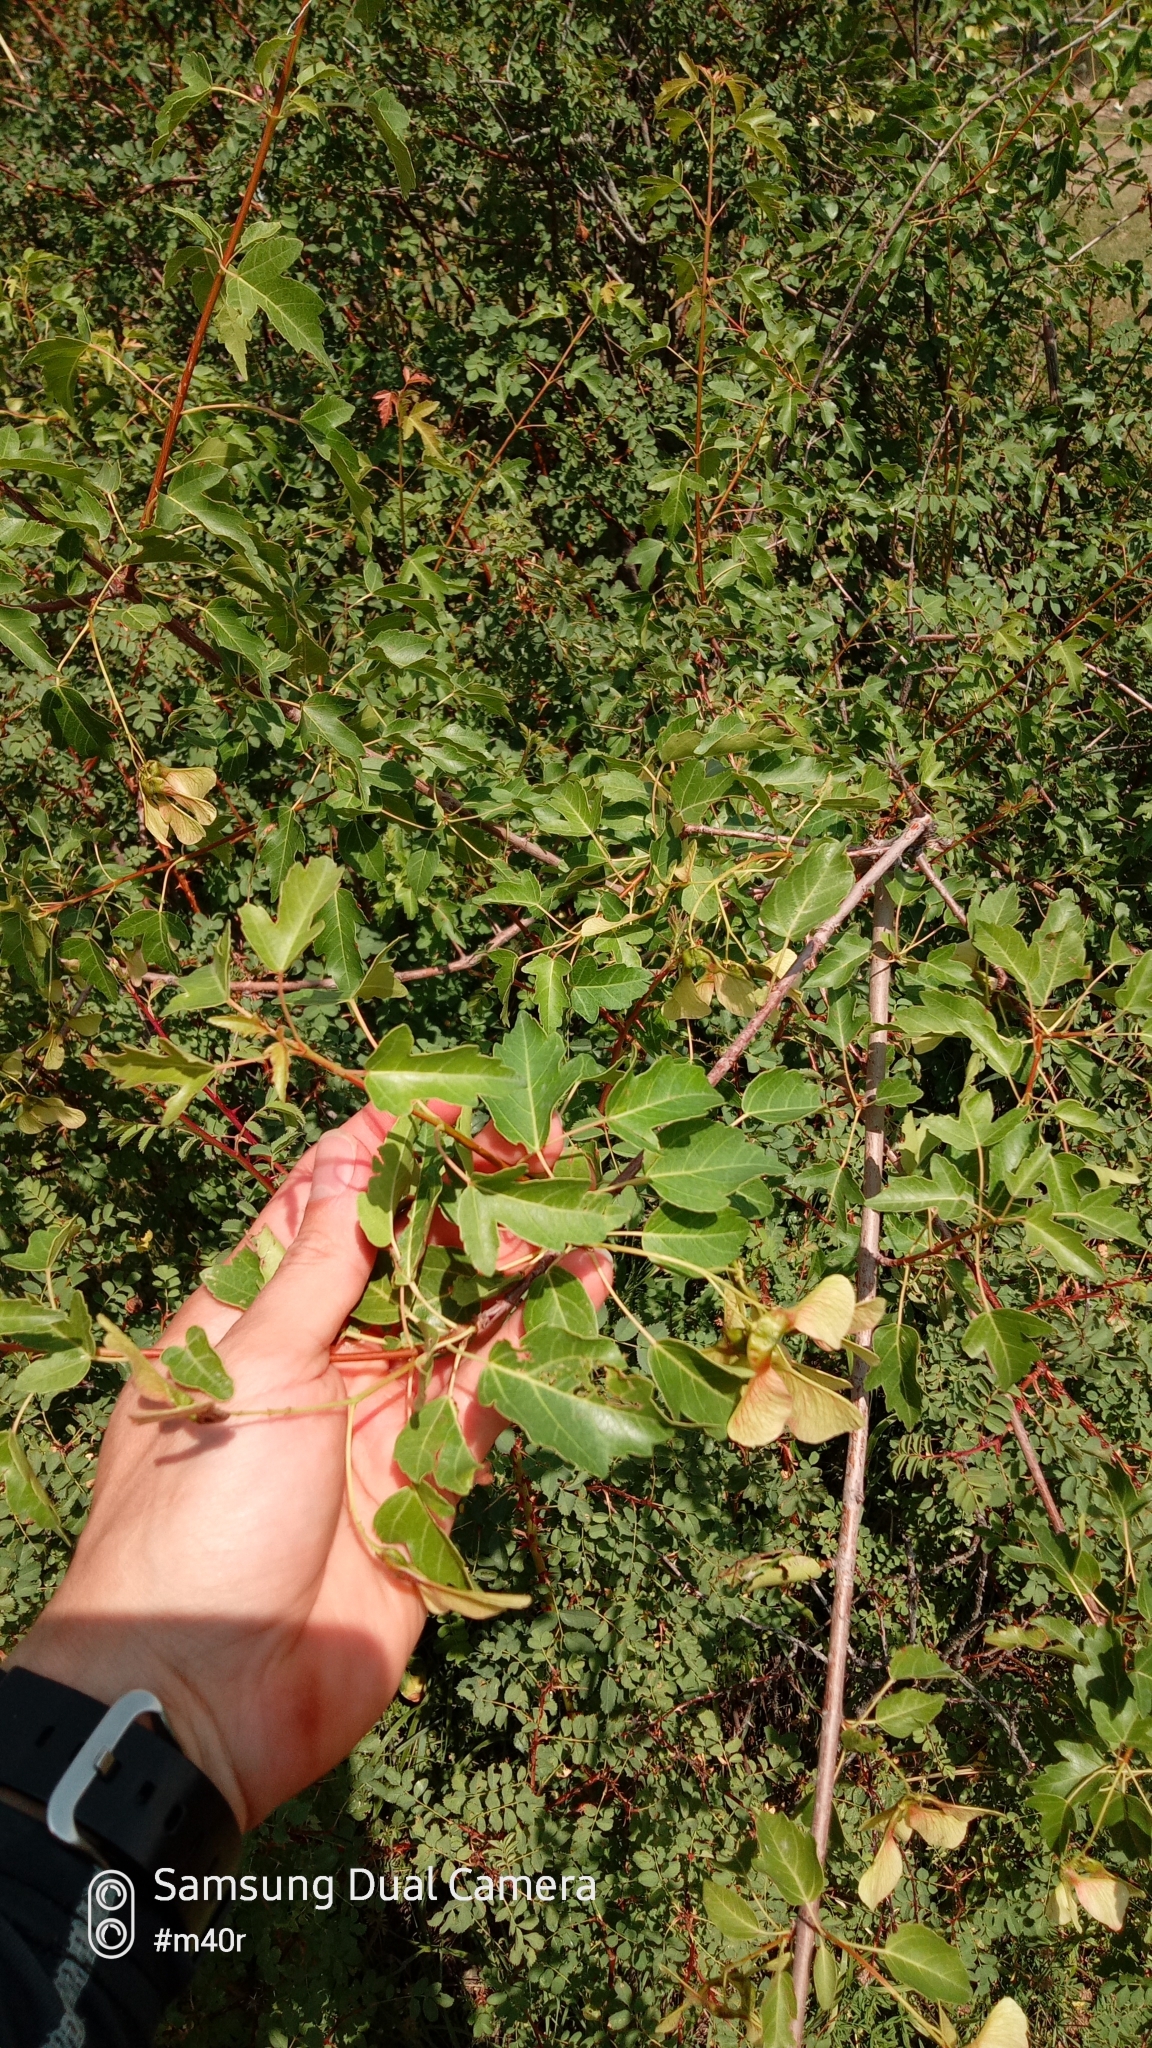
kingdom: Plantae
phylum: Tracheophyta
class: Magnoliopsida
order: Sapindales
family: Sapindaceae
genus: Acer
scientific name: Acer tataricum
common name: Tartar maple
